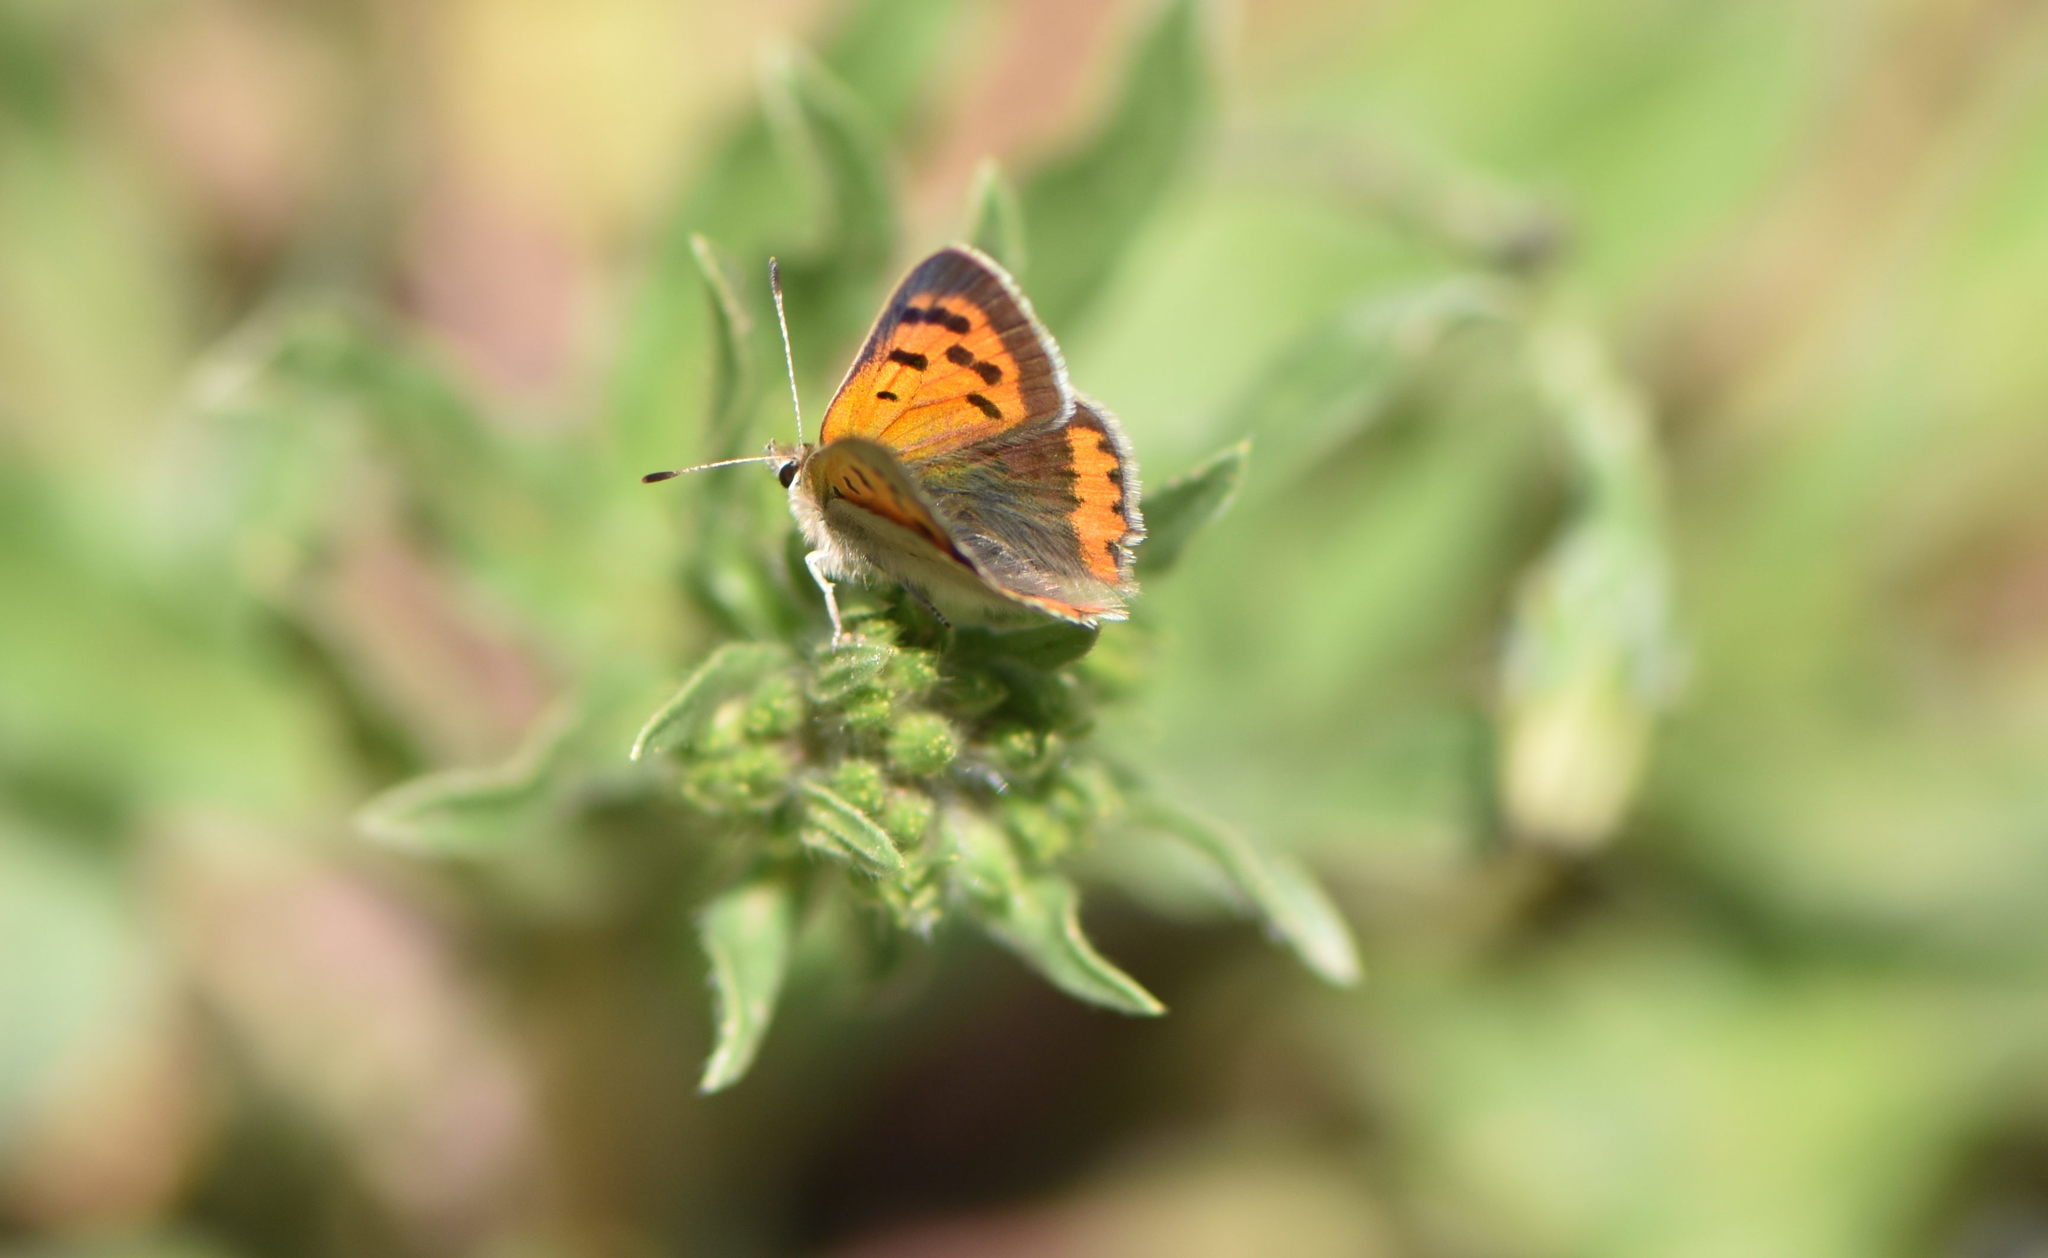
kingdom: Animalia
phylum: Arthropoda
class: Insecta
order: Lepidoptera
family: Lycaenidae
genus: Lycaena
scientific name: Lycaena phlaeas
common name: Small copper
